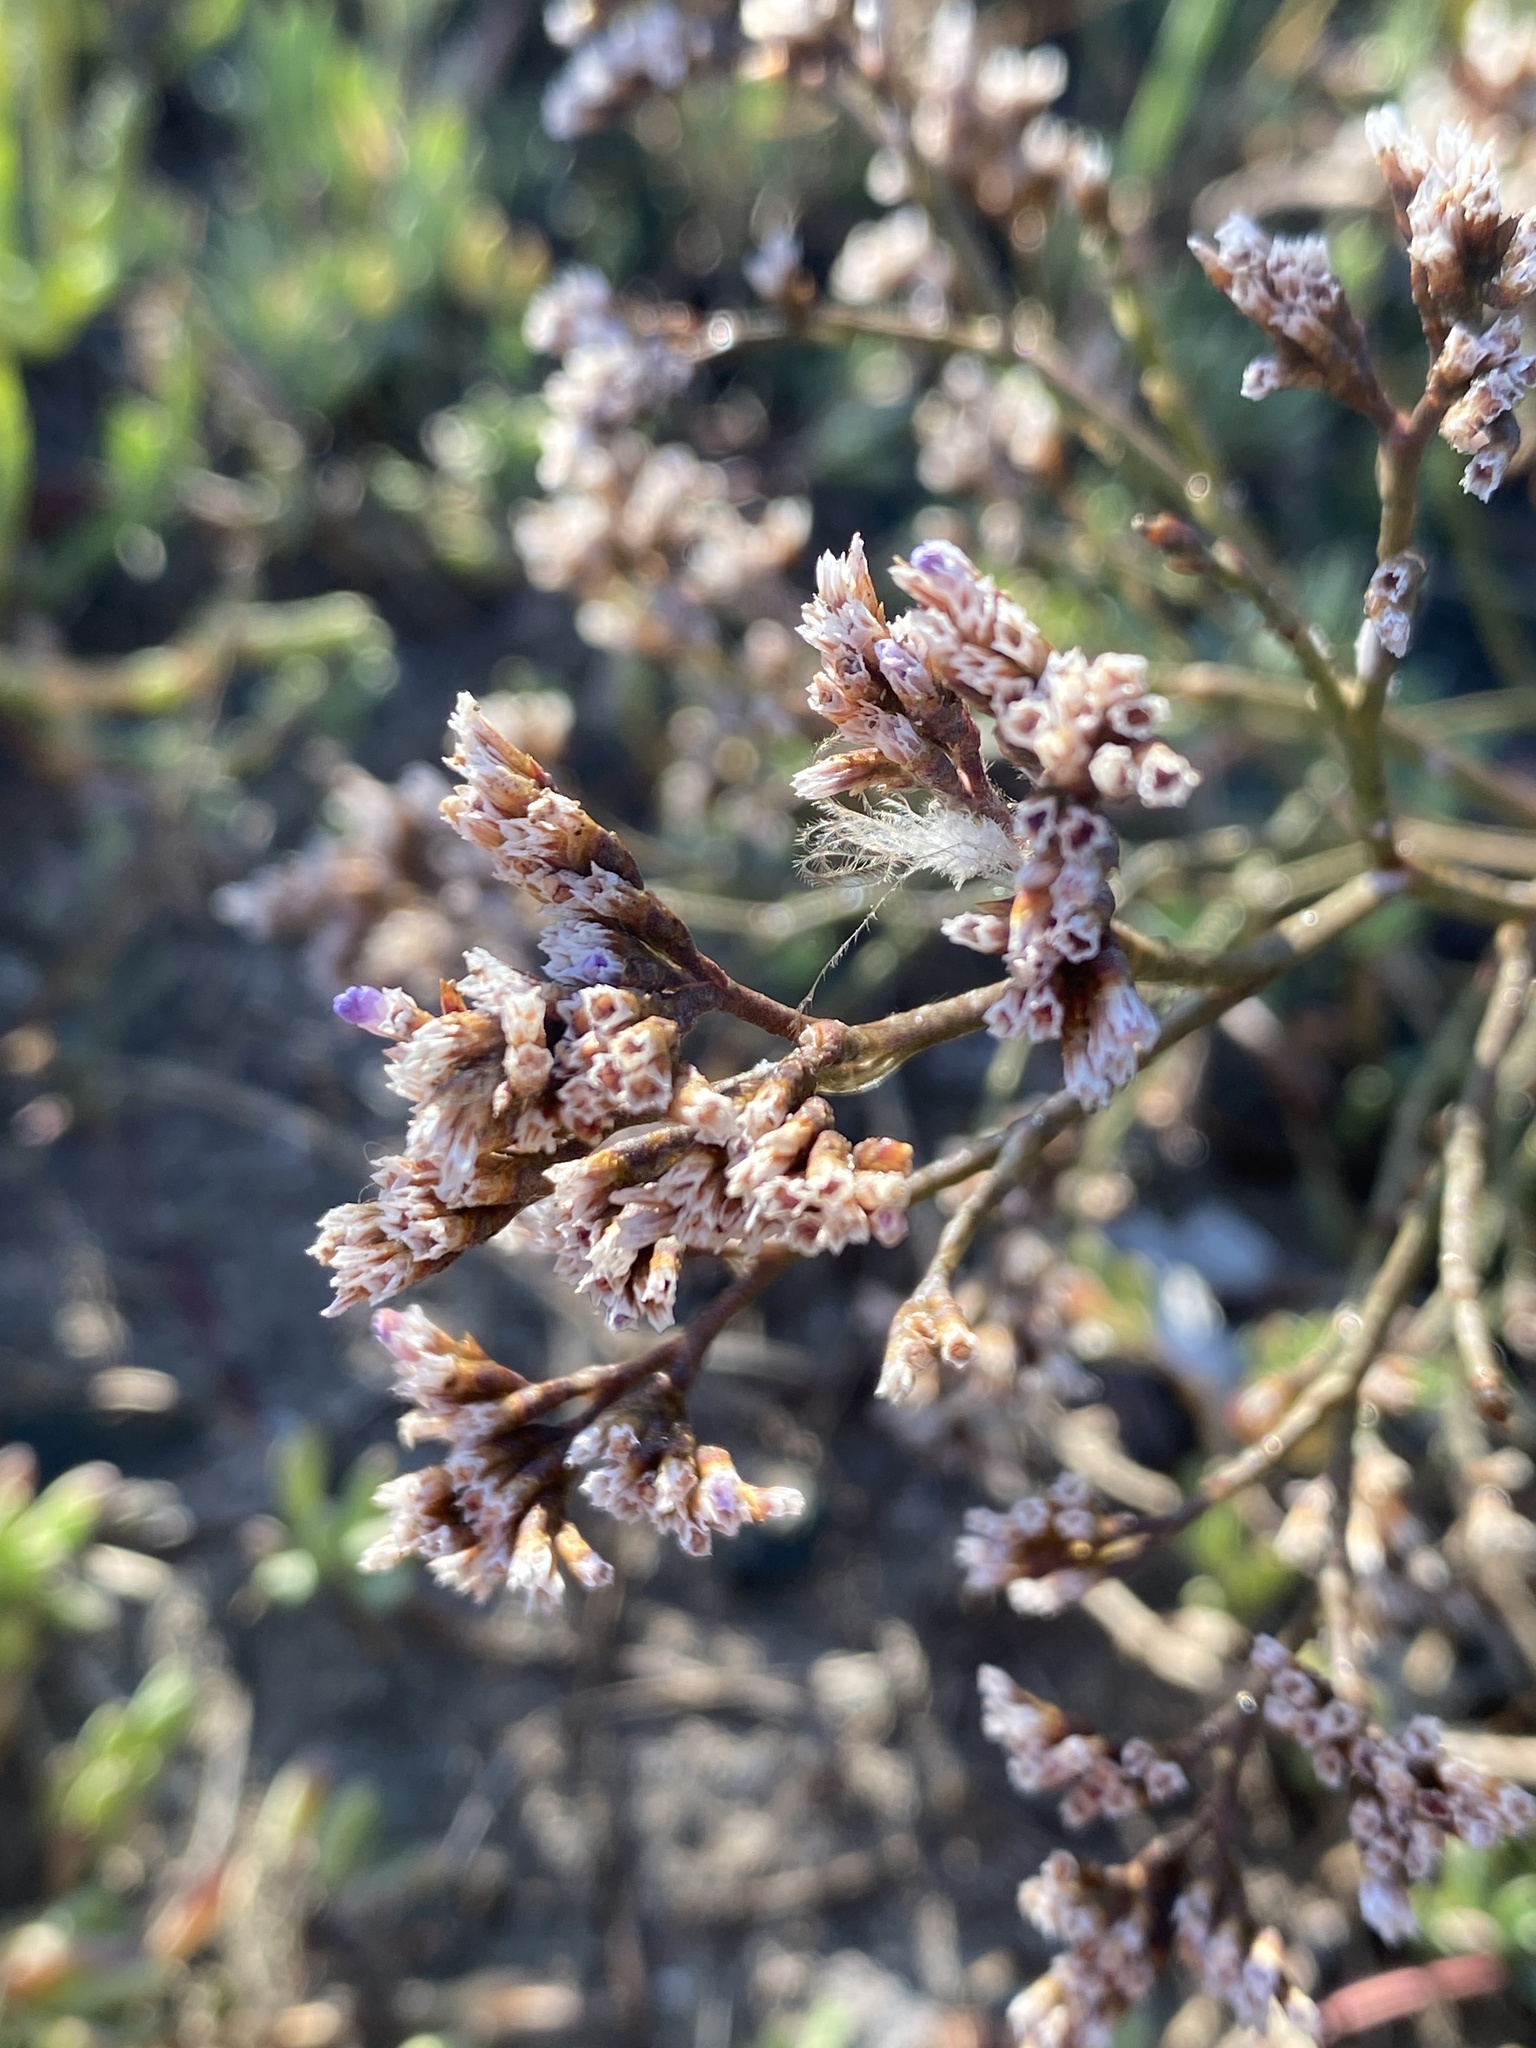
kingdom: Plantae
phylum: Tracheophyta
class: Magnoliopsida
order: Caryophyllales
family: Plumbaginaceae
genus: Limonium
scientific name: Limonium californicum
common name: Marsh-rosemary
